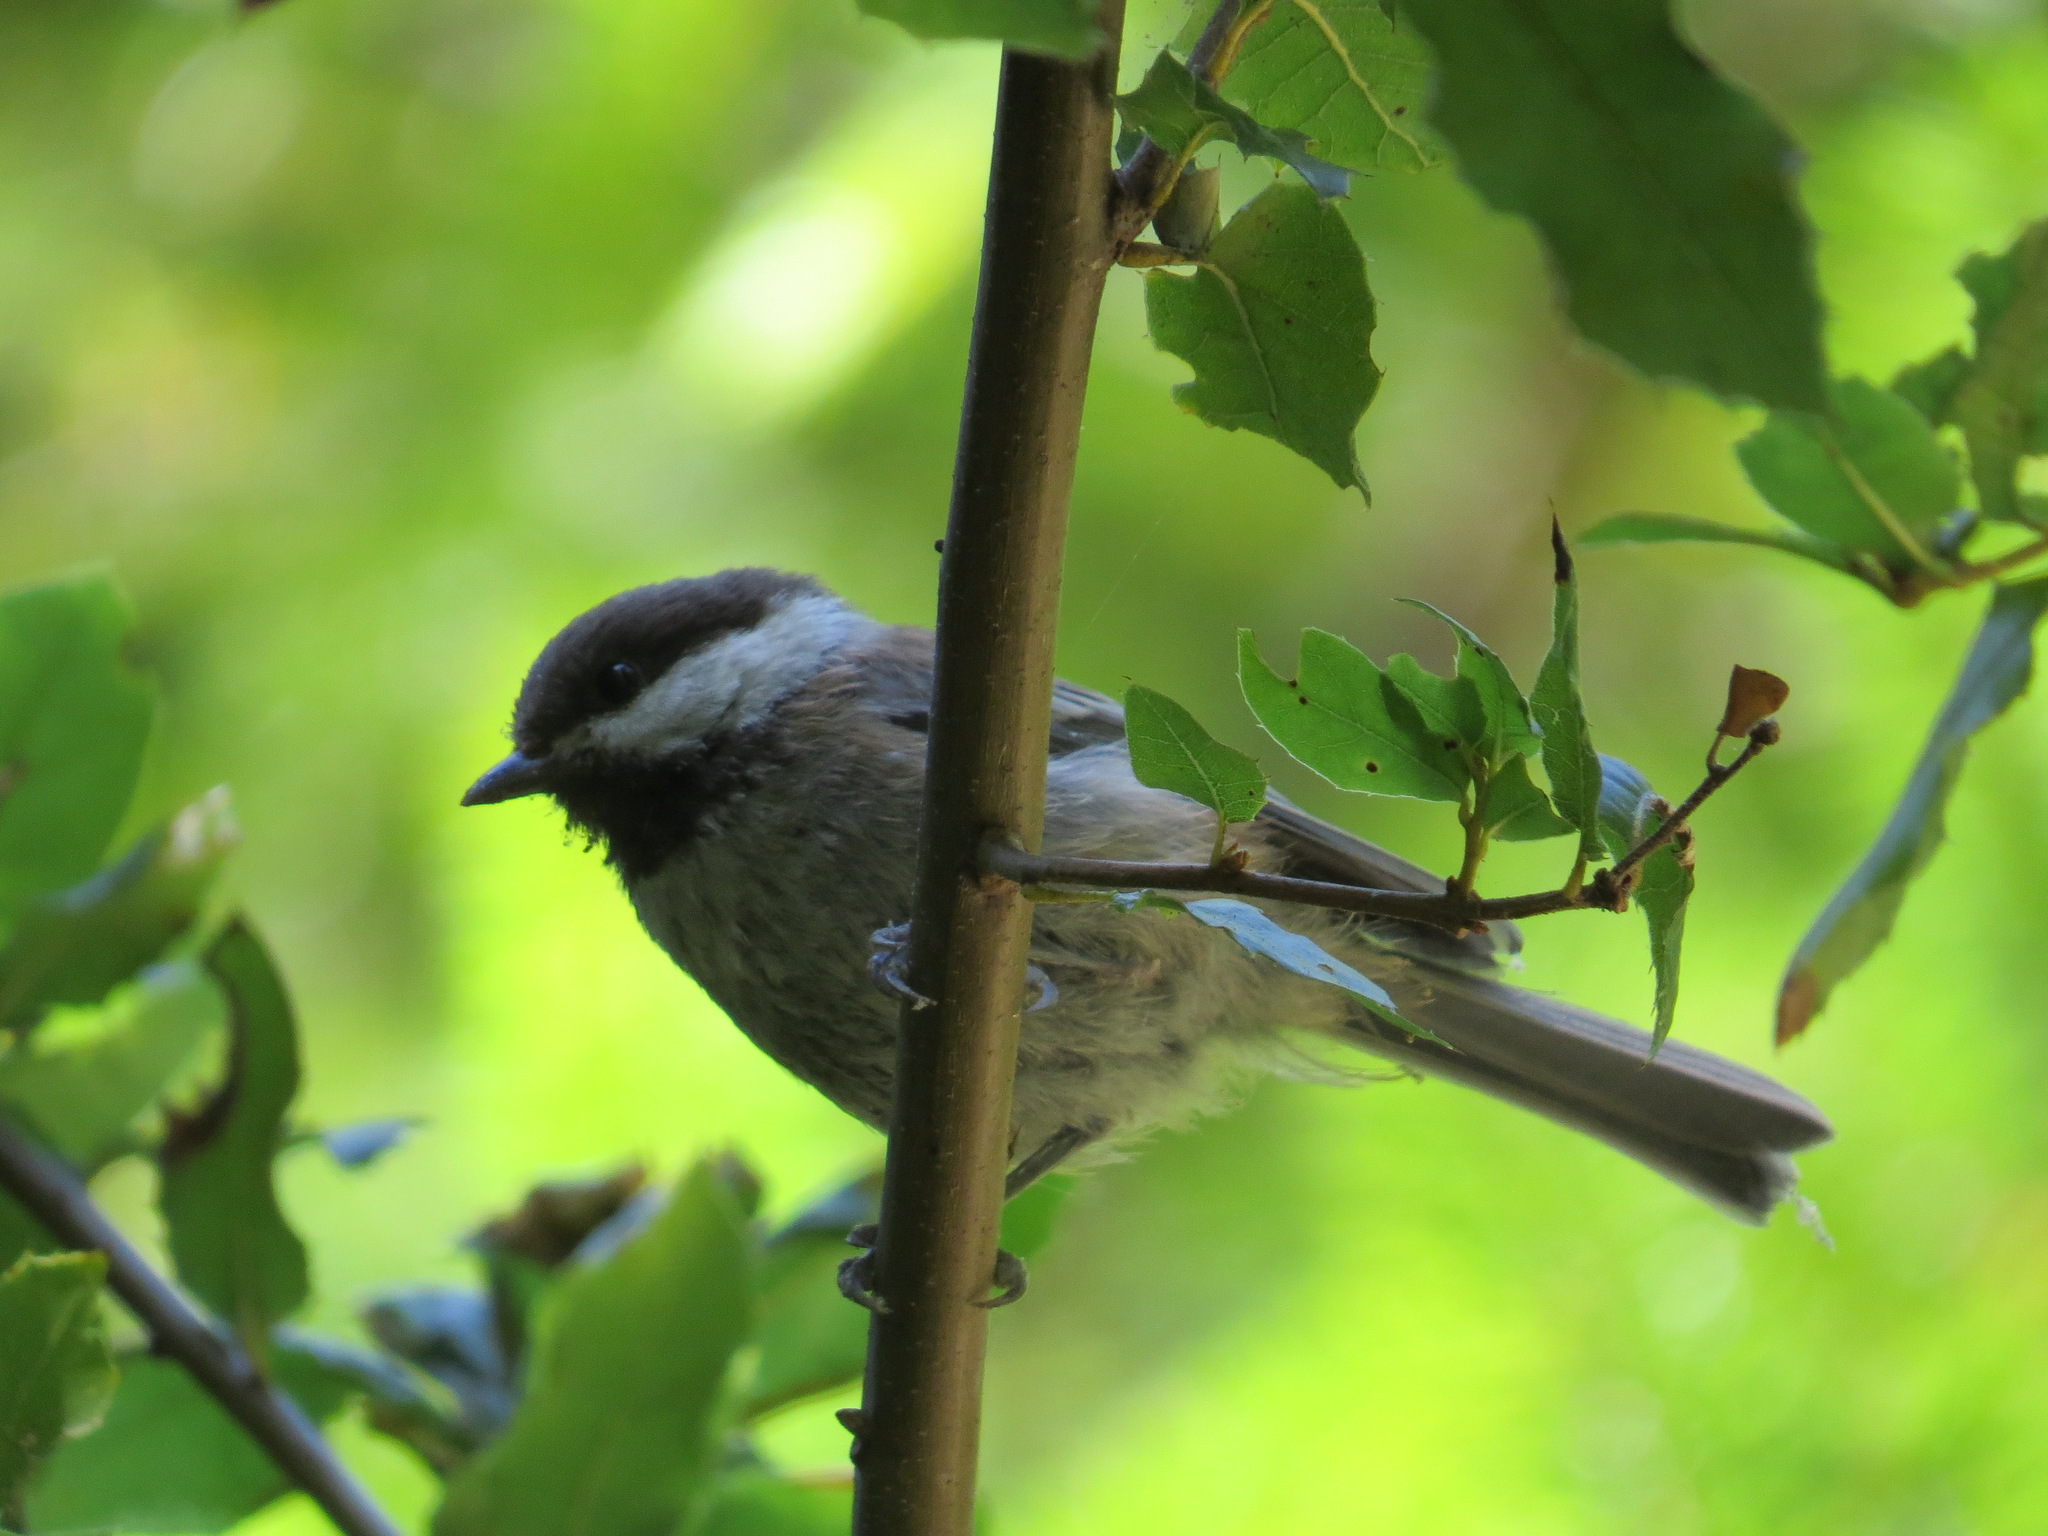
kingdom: Animalia
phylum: Chordata
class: Aves
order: Passeriformes
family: Paridae
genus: Poecile
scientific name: Poecile rufescens
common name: Chestnut-backed chickadee
